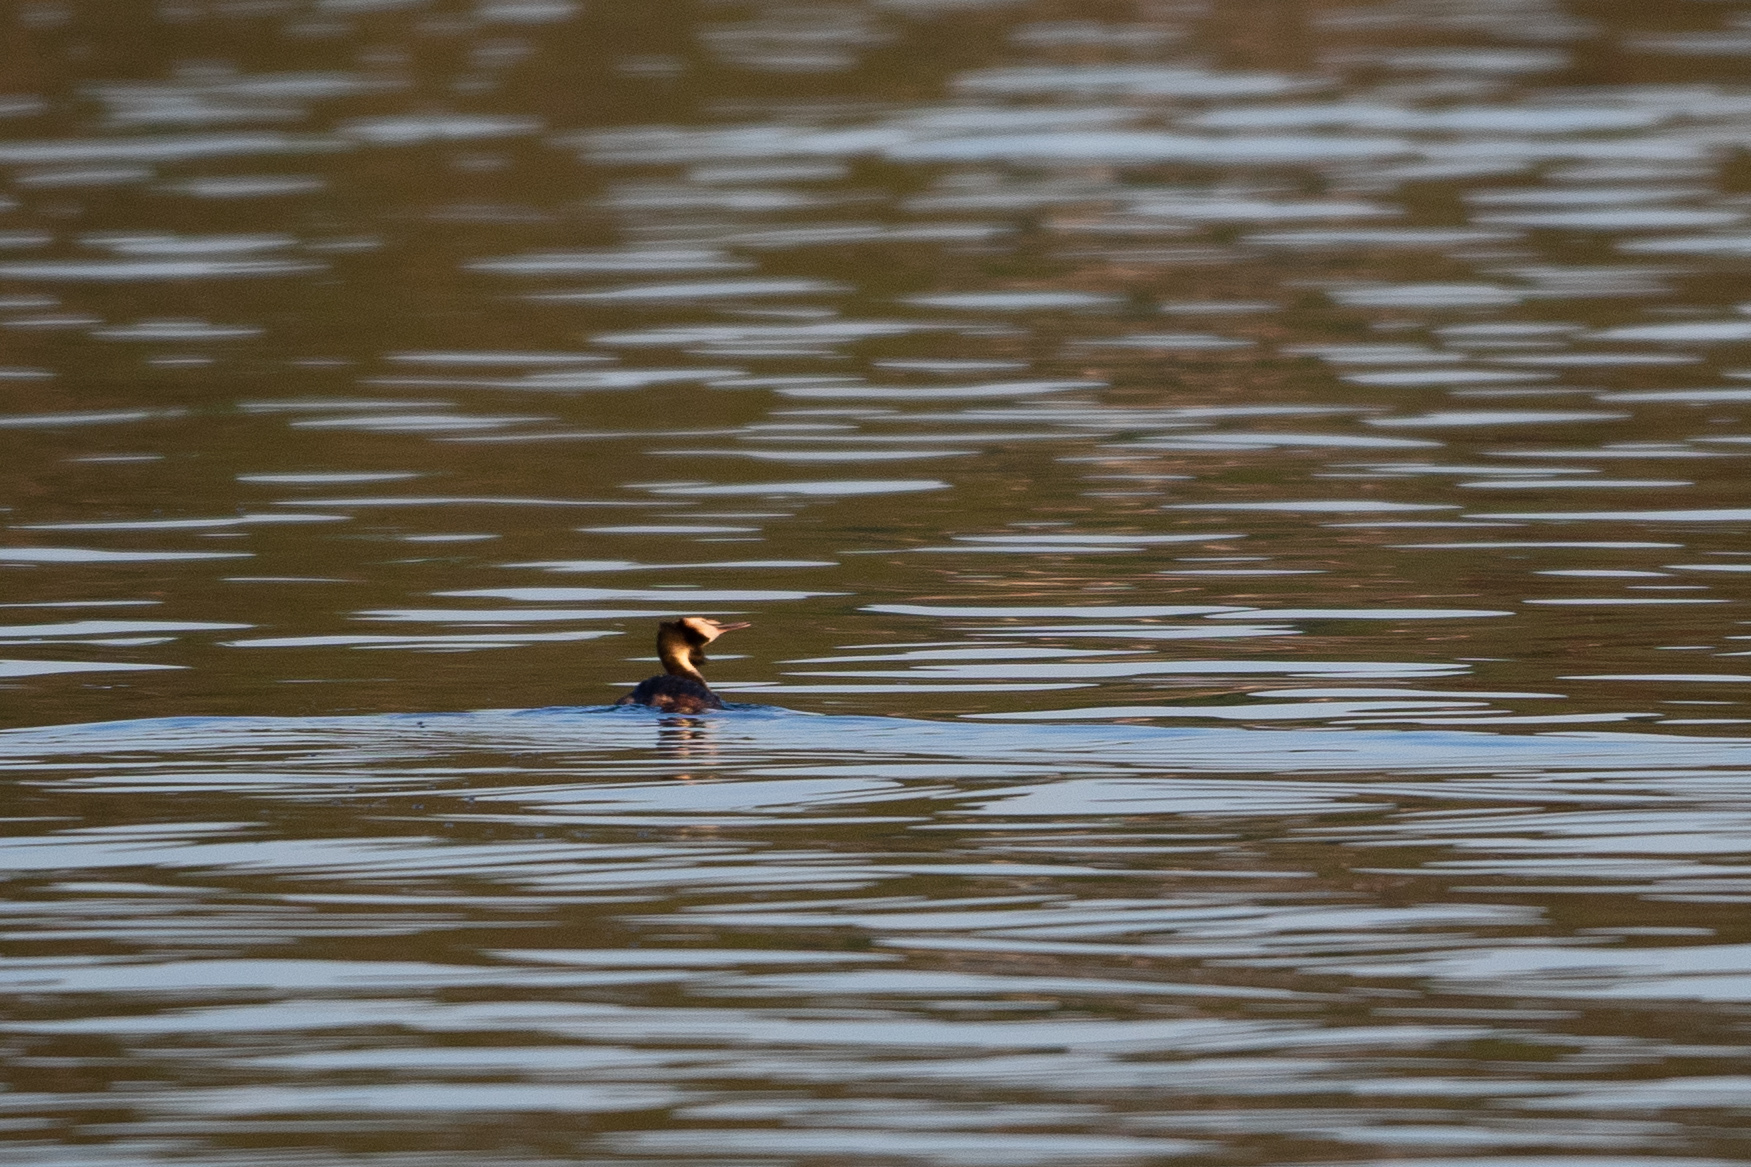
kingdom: Animalia
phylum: Chordata
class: Aves
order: Podicipediformes
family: Podicipedidae
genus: Podiceps
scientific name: Podiceps cristatus
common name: Great crested grebe
